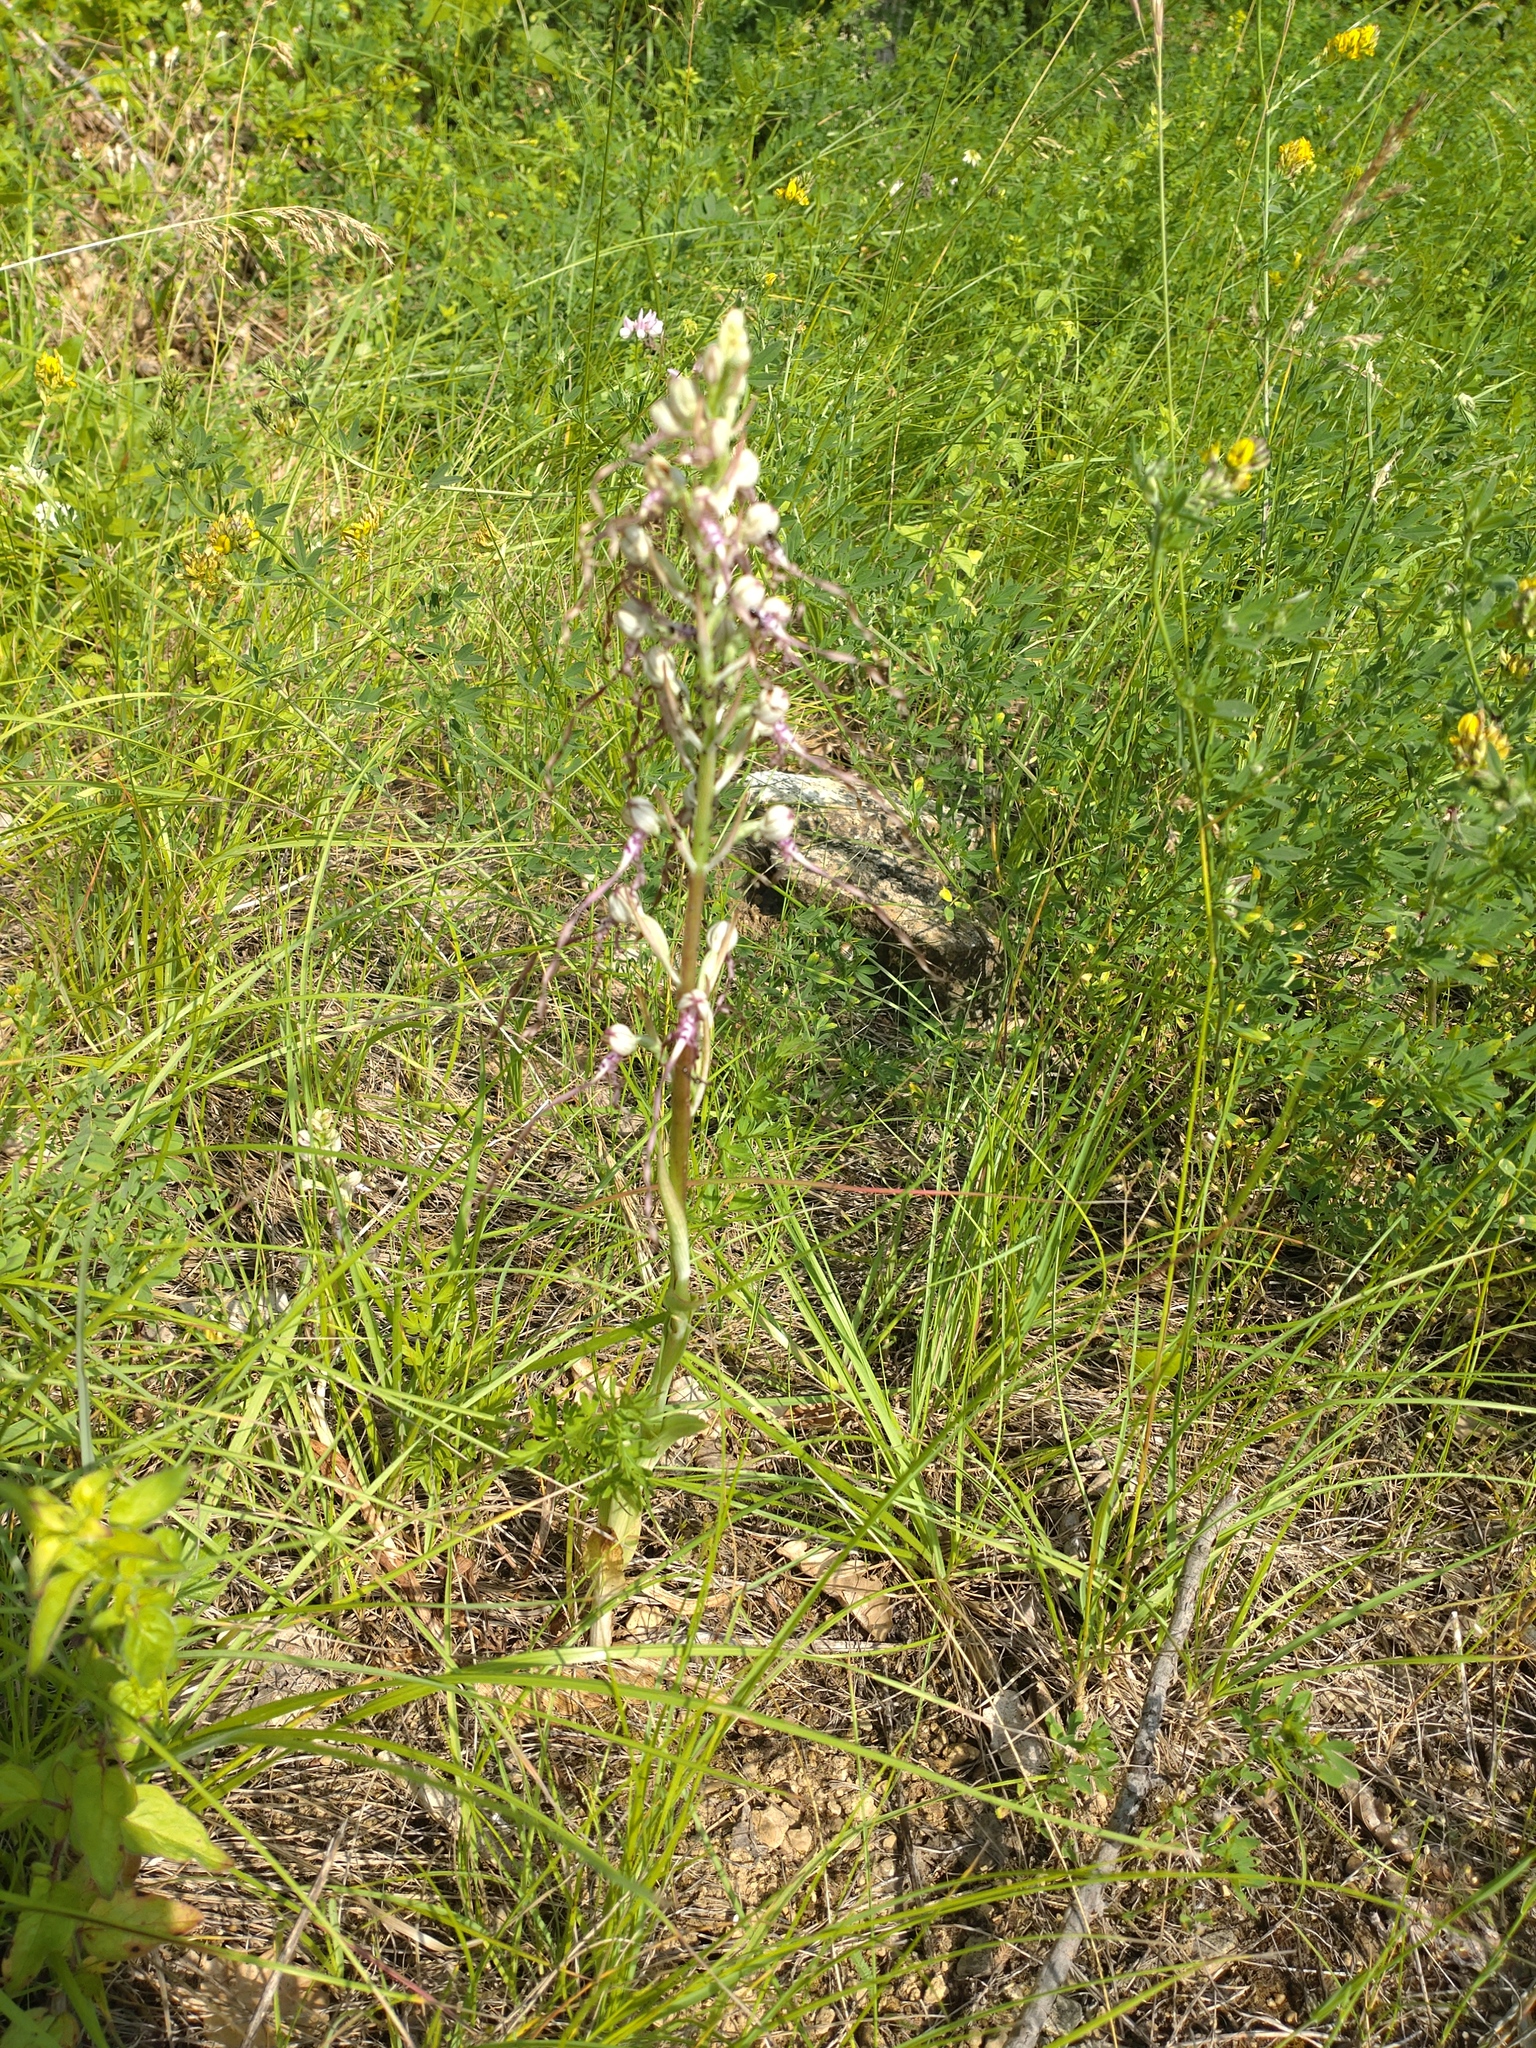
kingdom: Plantae
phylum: Tracheophyta
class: Liliopsida
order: Asparagales
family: Orchidaceae
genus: Himantoglossum
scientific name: Himantoglossum adriaticum
